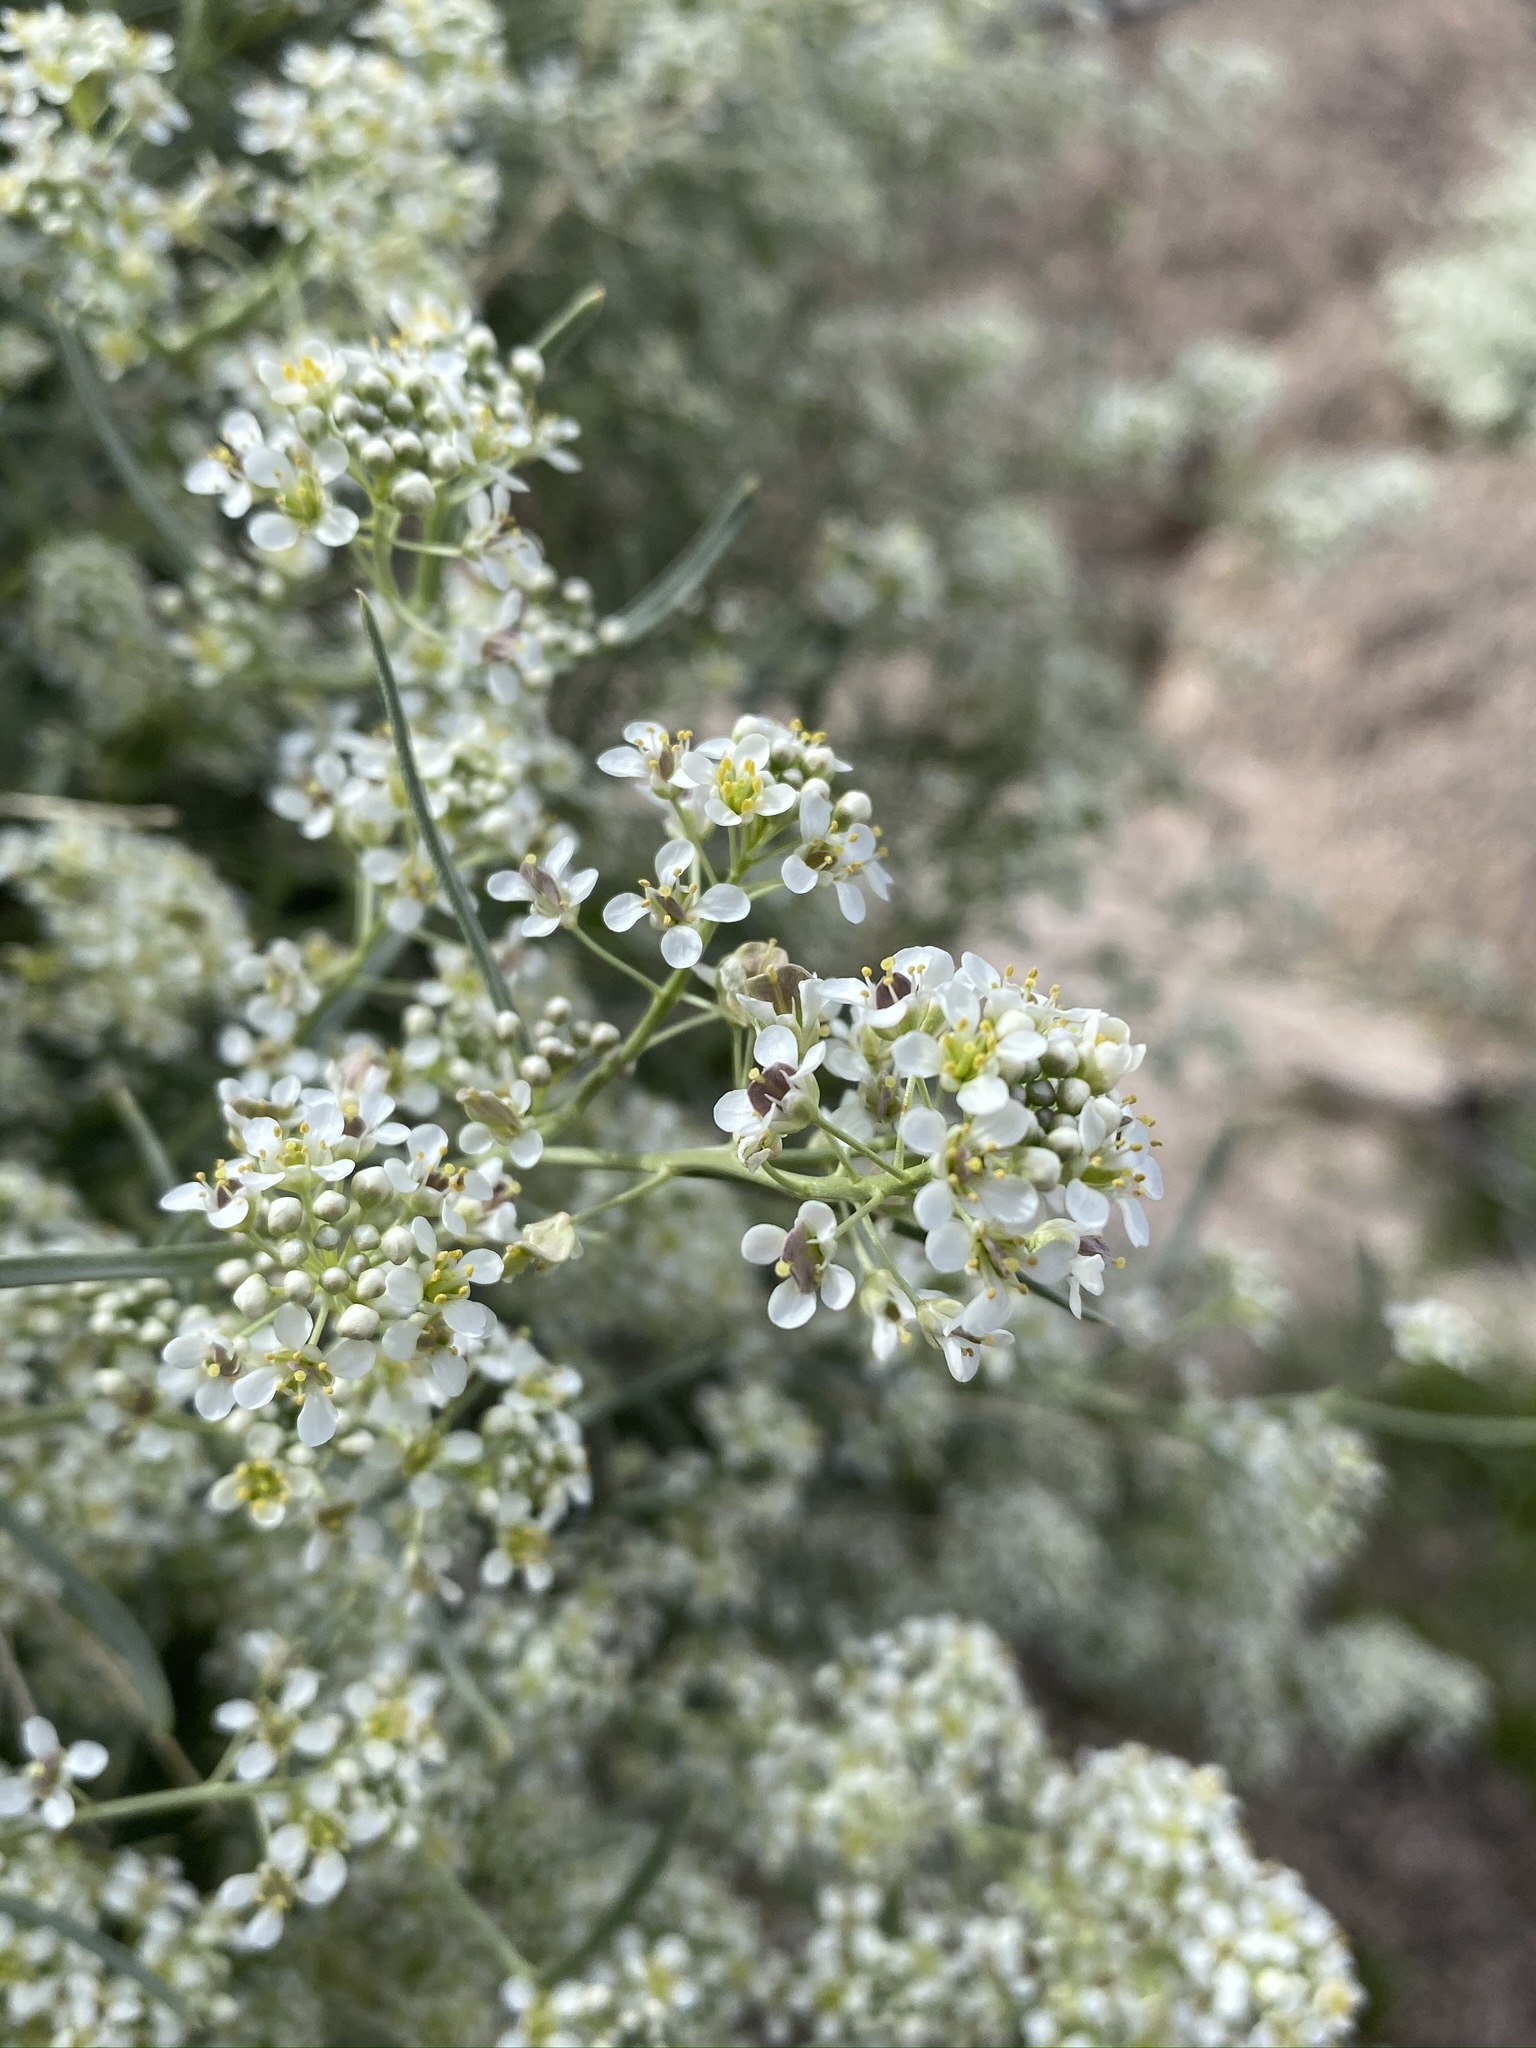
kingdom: Plantae
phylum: Tracheophyta
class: Magnoliopsida
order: Brassicales
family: Brassicaceae
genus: Lepidium
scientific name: Lepidium fremontii
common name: Fremont's pepperwort
